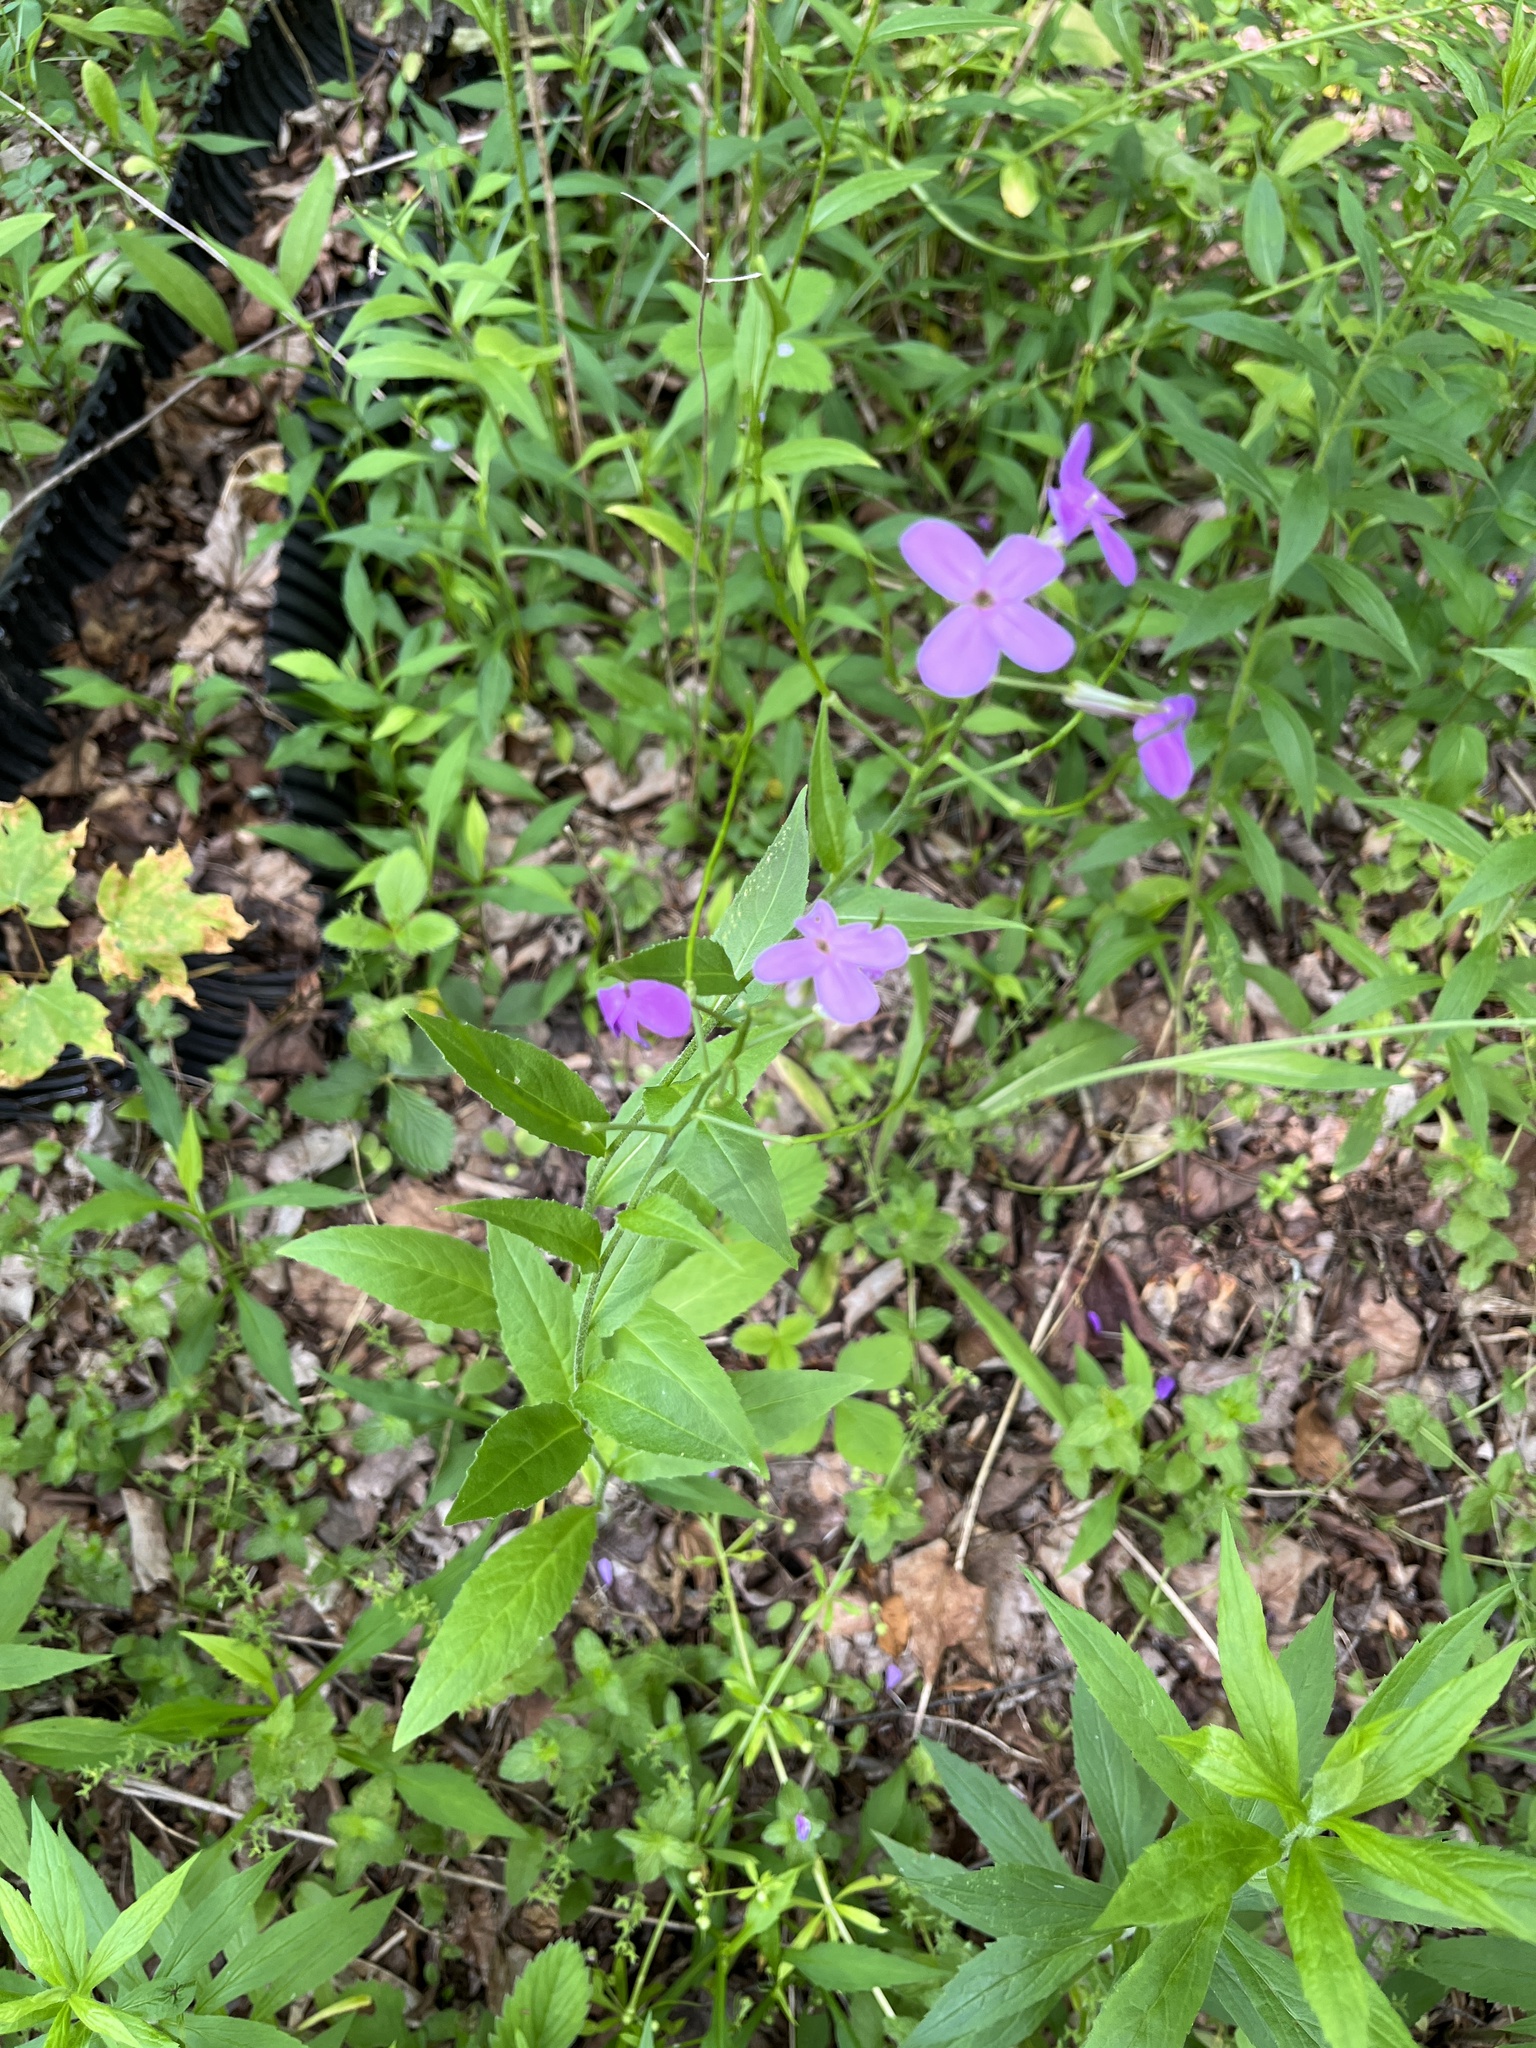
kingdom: Plantae
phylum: Tracheophyta
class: Magnoliopsida
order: Brassicales
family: Brassicaceae
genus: Hesperis
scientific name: Hesperis matronalis
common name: Dame's-violet
